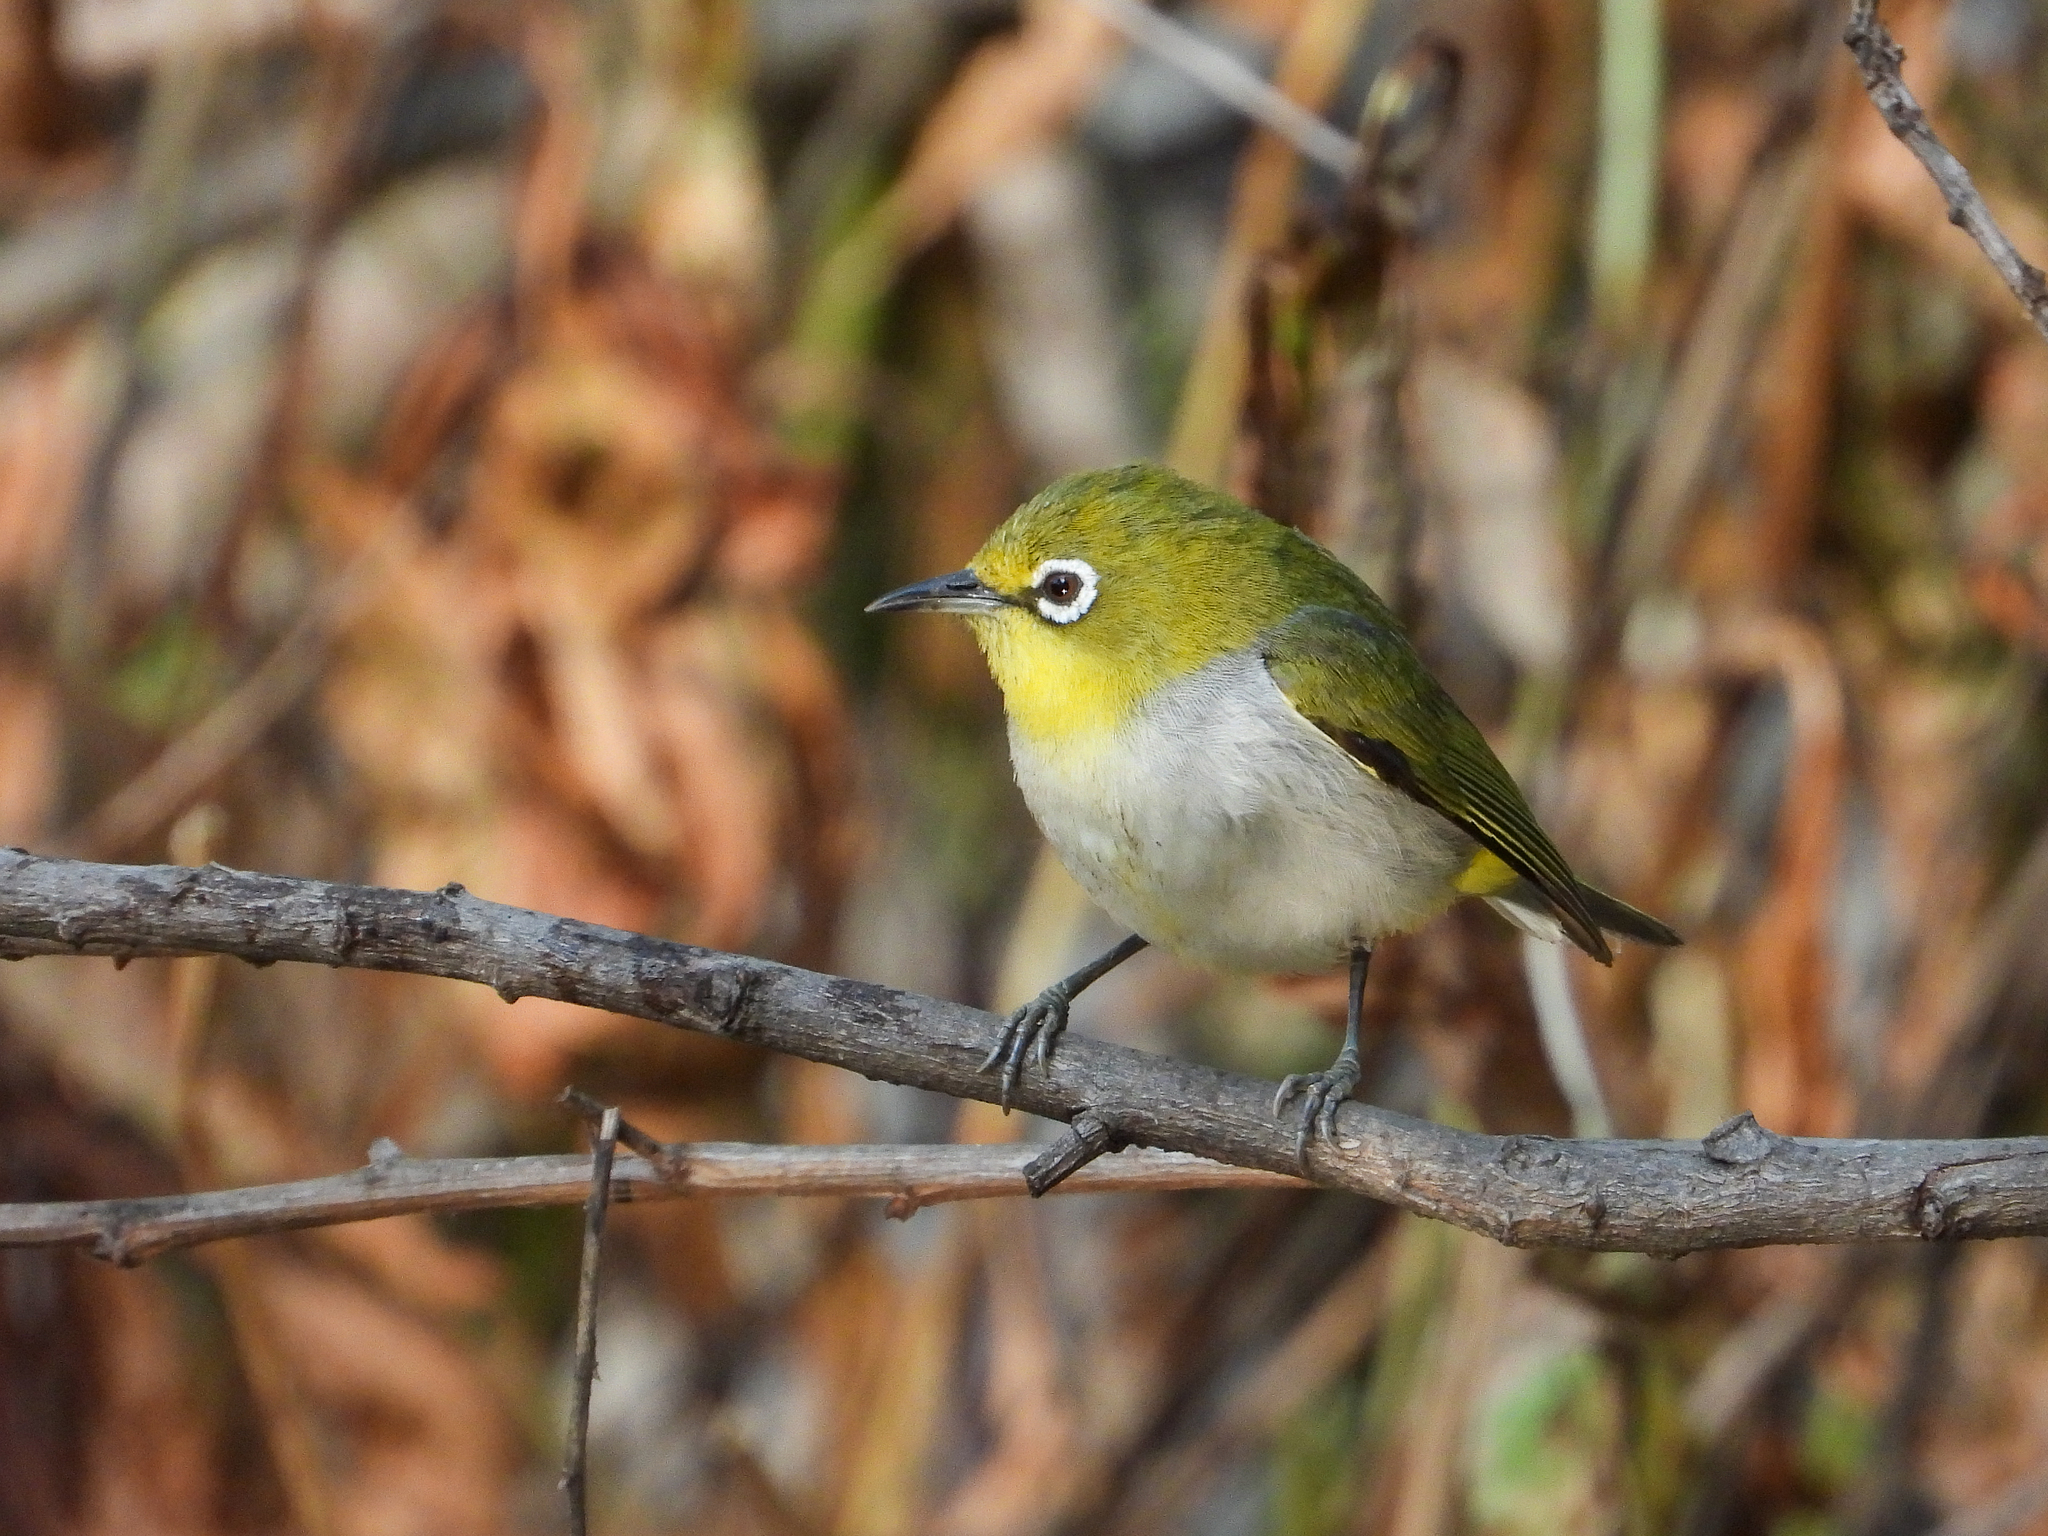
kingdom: Animalia
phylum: Chordata
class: Aves
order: Passeriformes
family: Zosteropidae
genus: Zosterops
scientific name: Zosterops simplex
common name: Swinhoe's white-eye
